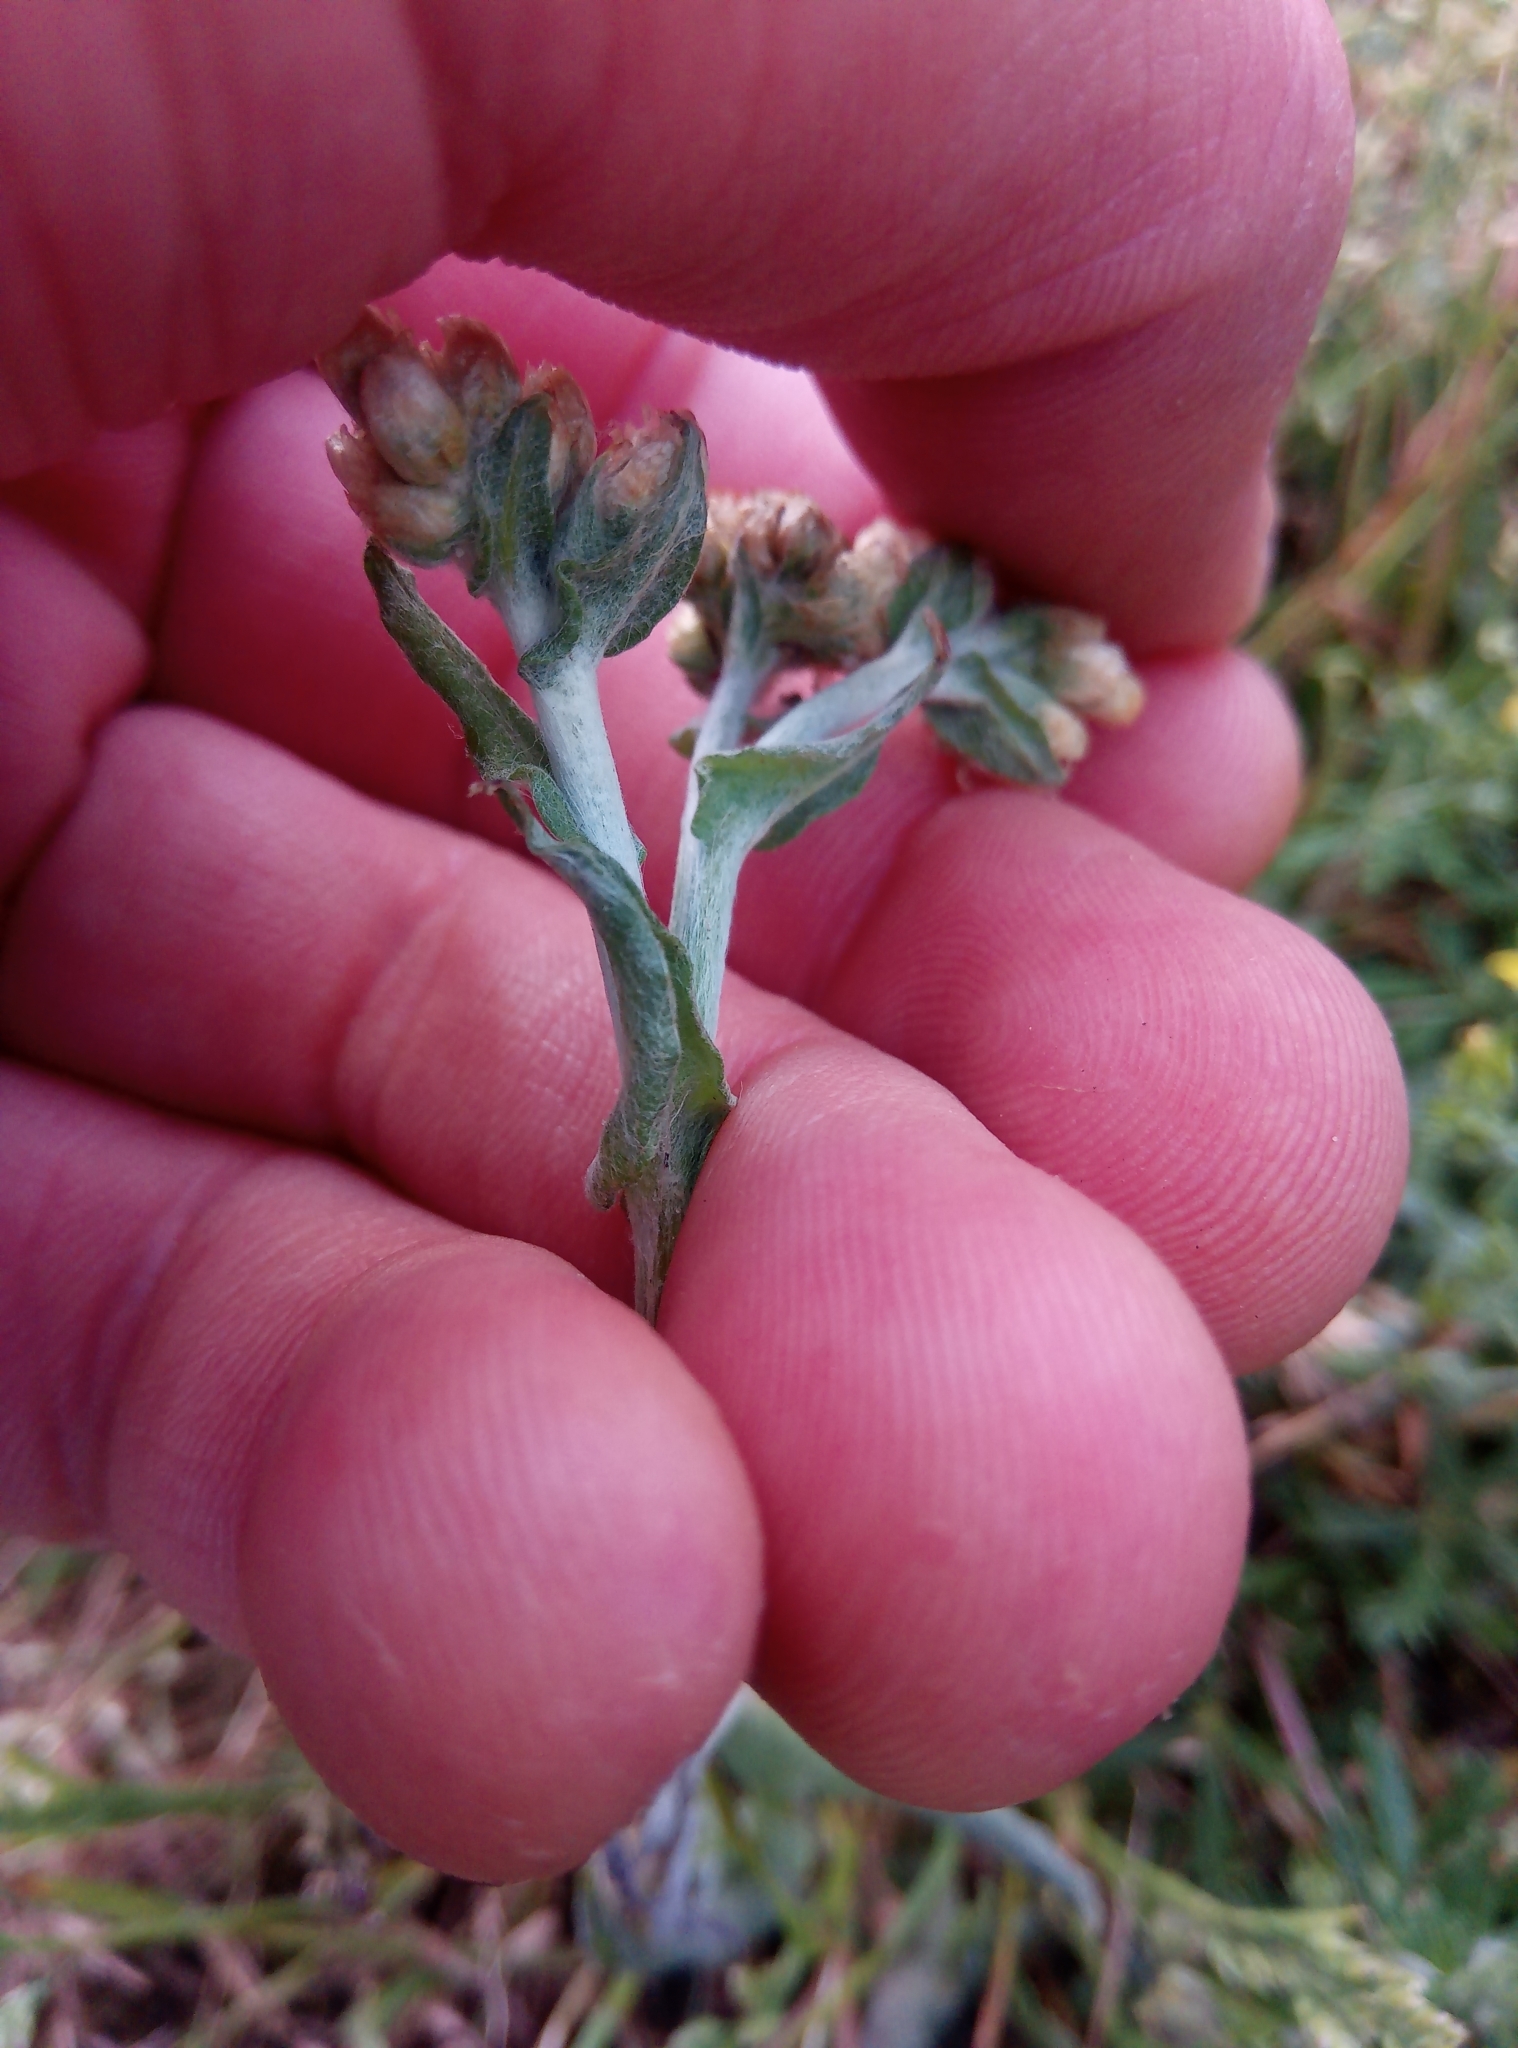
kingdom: Plantae
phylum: Tracheophyta
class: Magnoliopsida
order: Asterales
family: Asteraceae
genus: Helichrysum
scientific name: Helichrysum luteoalbum
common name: Daisy
